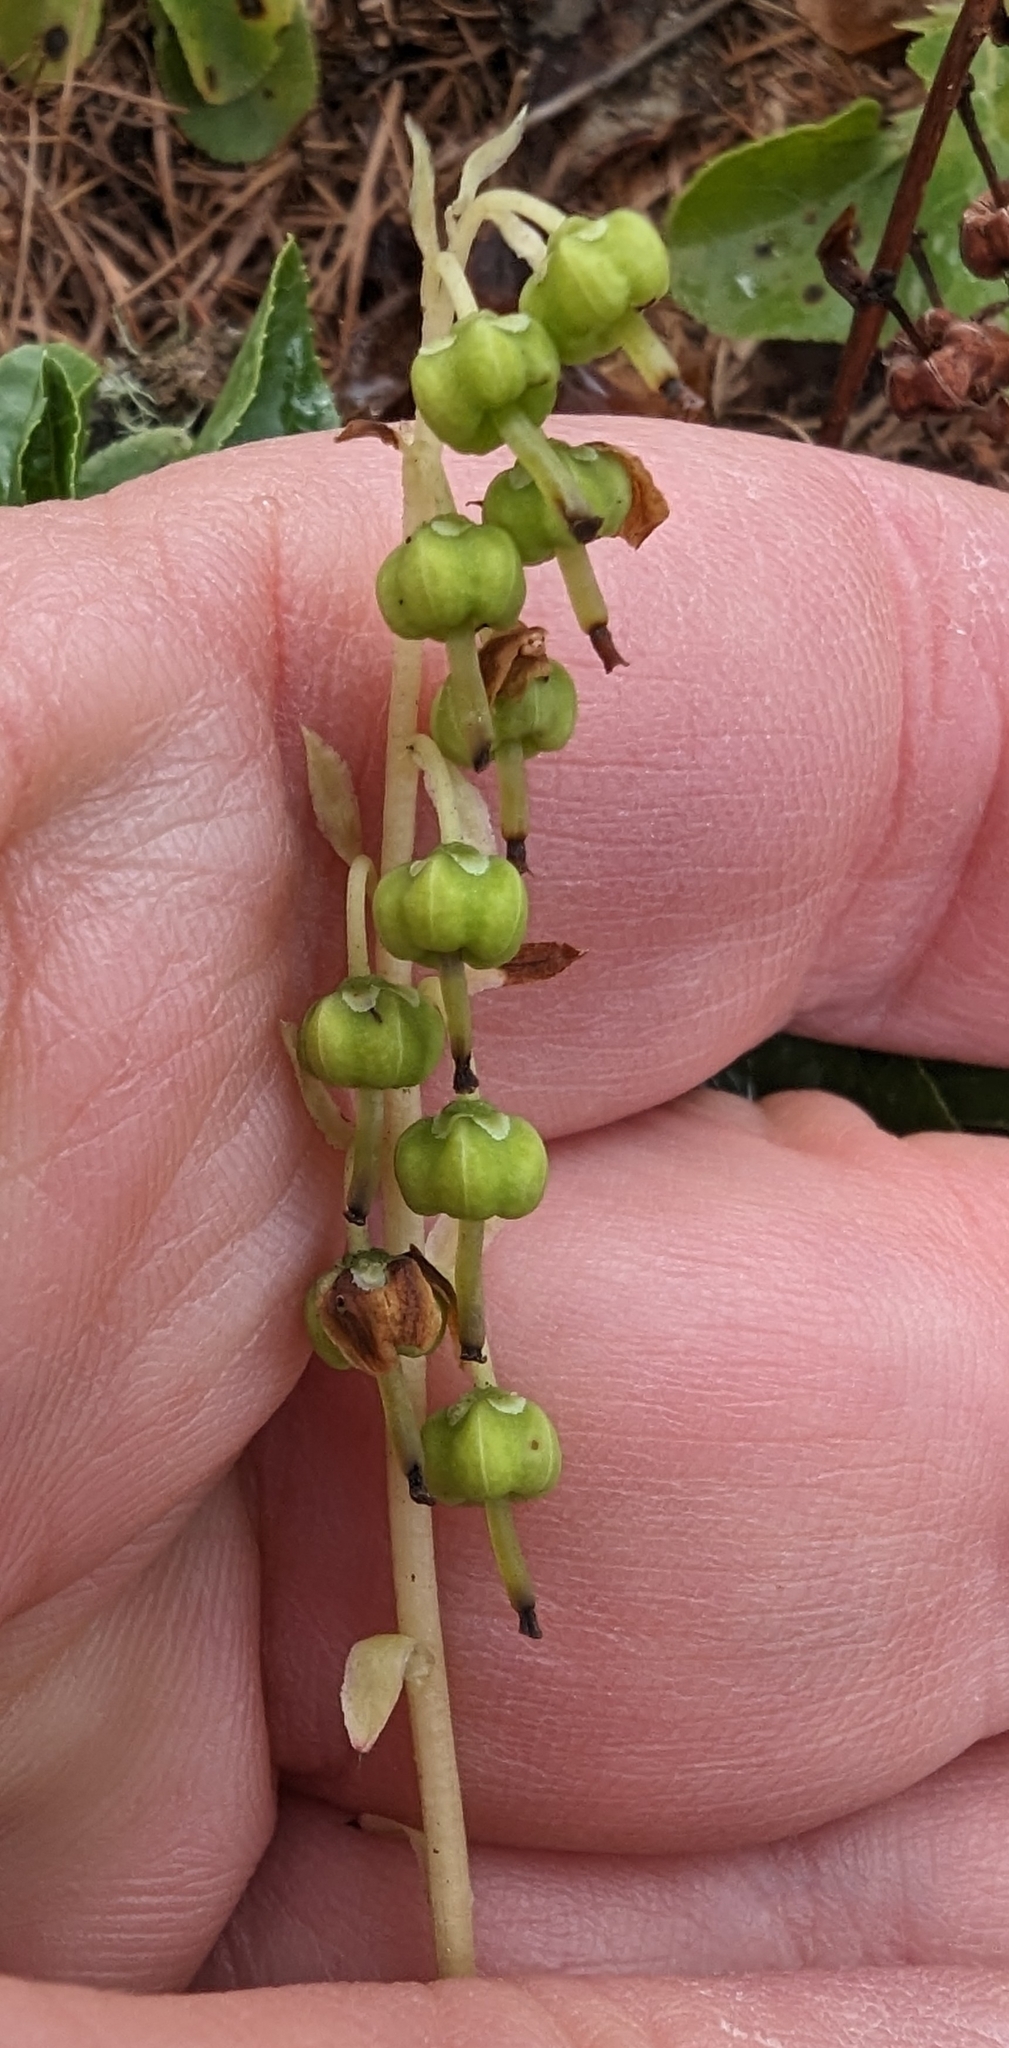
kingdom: Plantae
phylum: Tracheophyta
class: Magnoliopsida
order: Ericales
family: Ericaceae
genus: Orthilia
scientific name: Orthilia secunda
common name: One-sided orthilia
